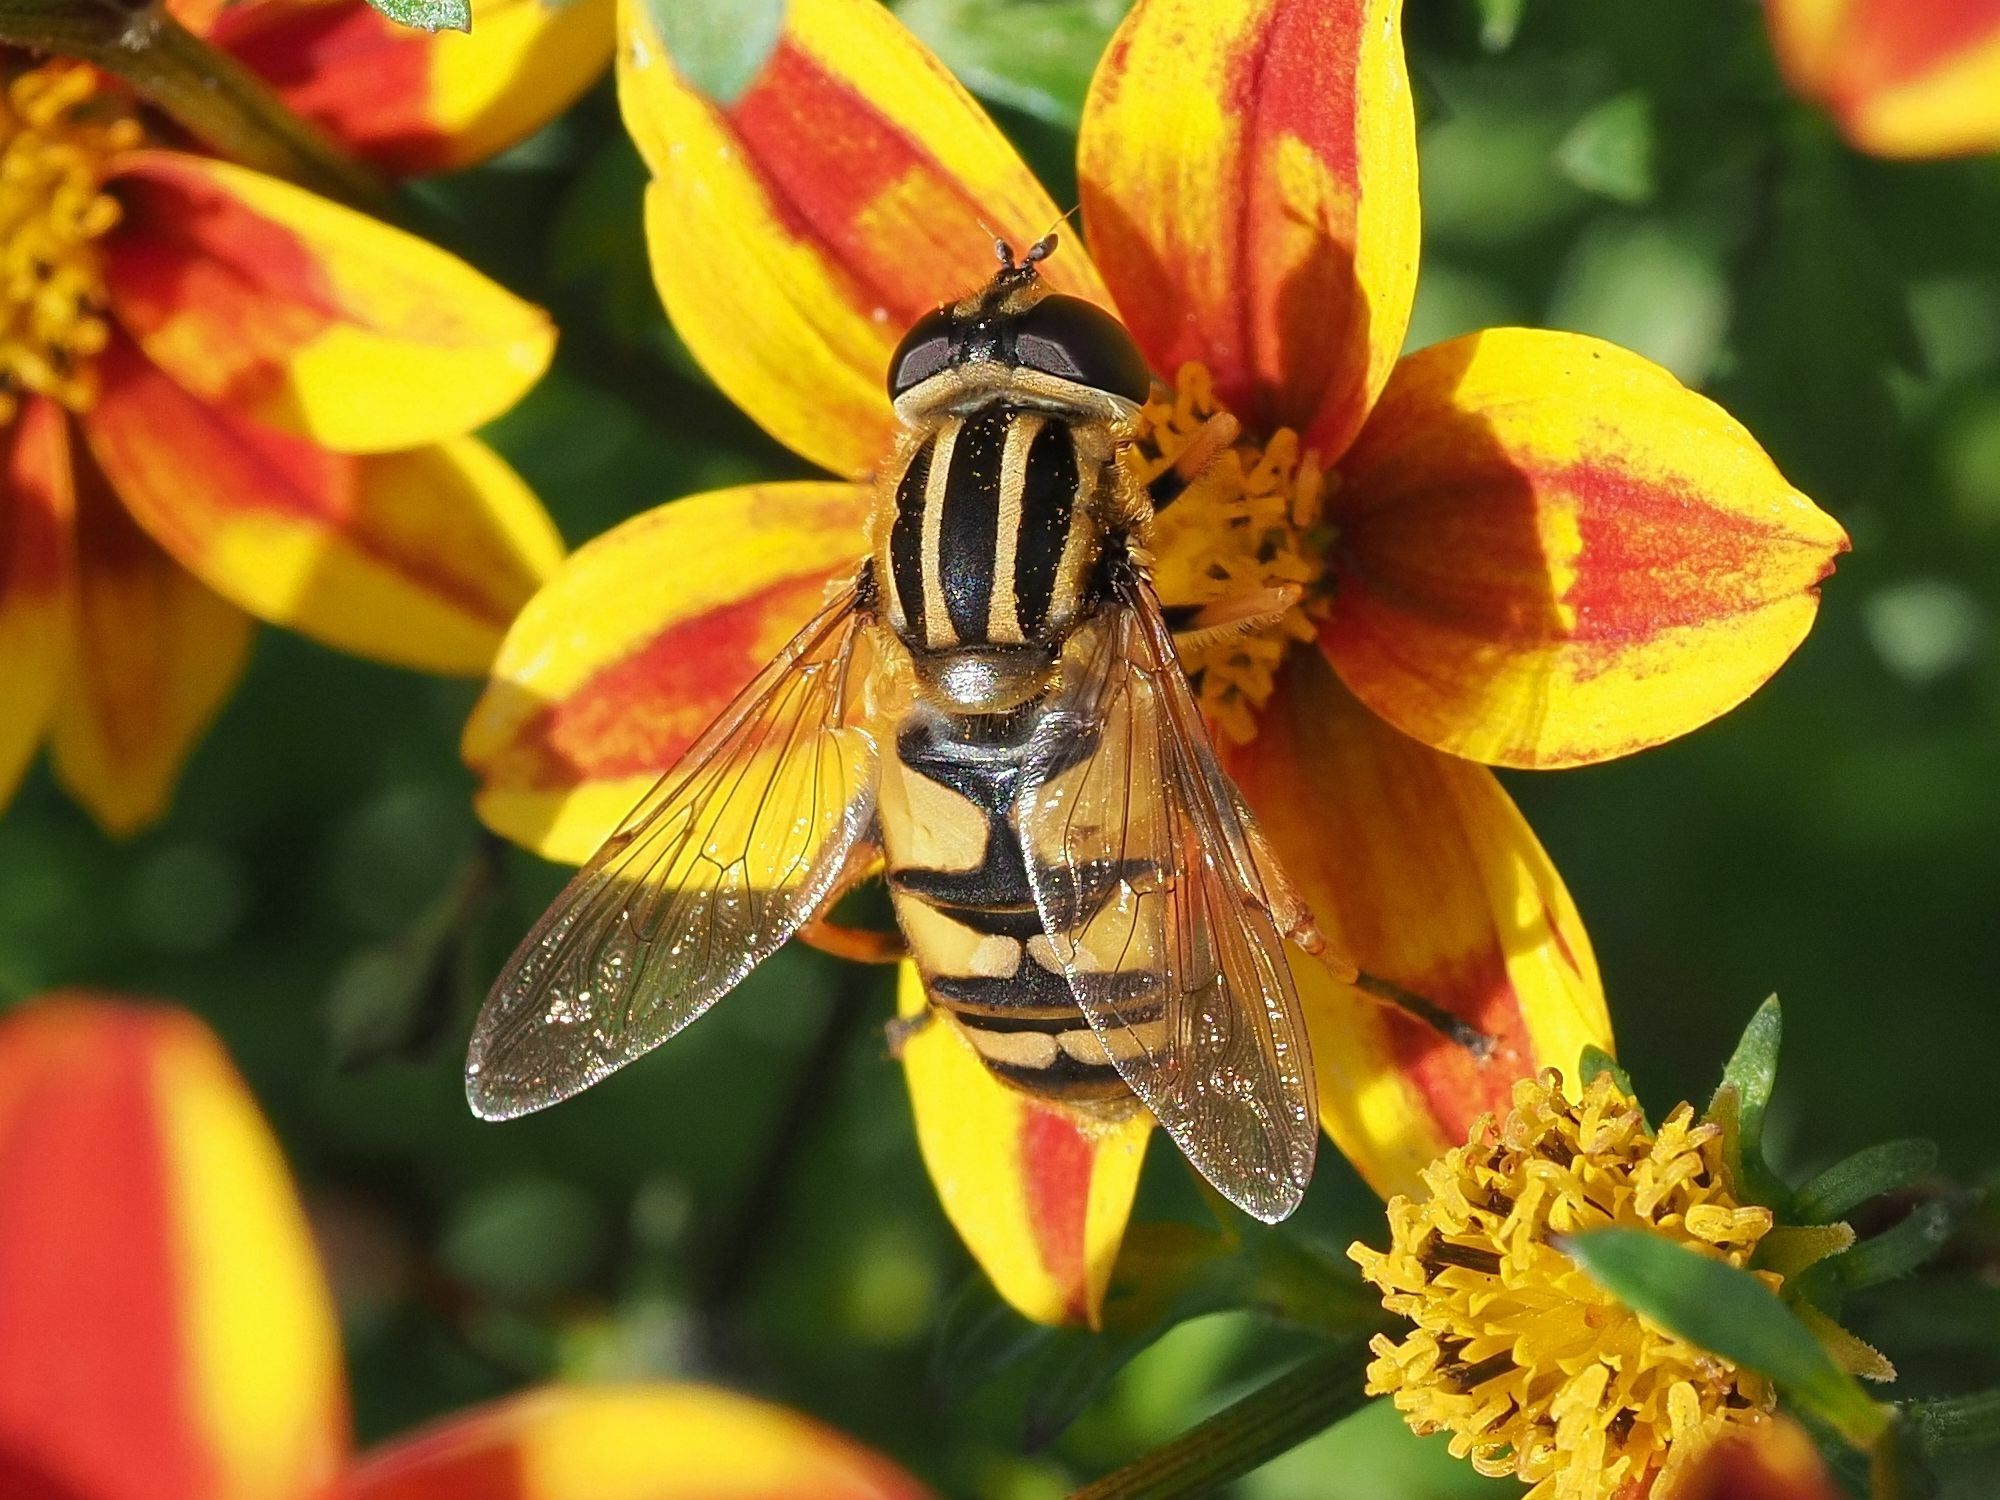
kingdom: Animalia
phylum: Arthropoda
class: Insecta
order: Diptera
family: Syrphidae
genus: Helophilus
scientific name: Helophilus pendulus
